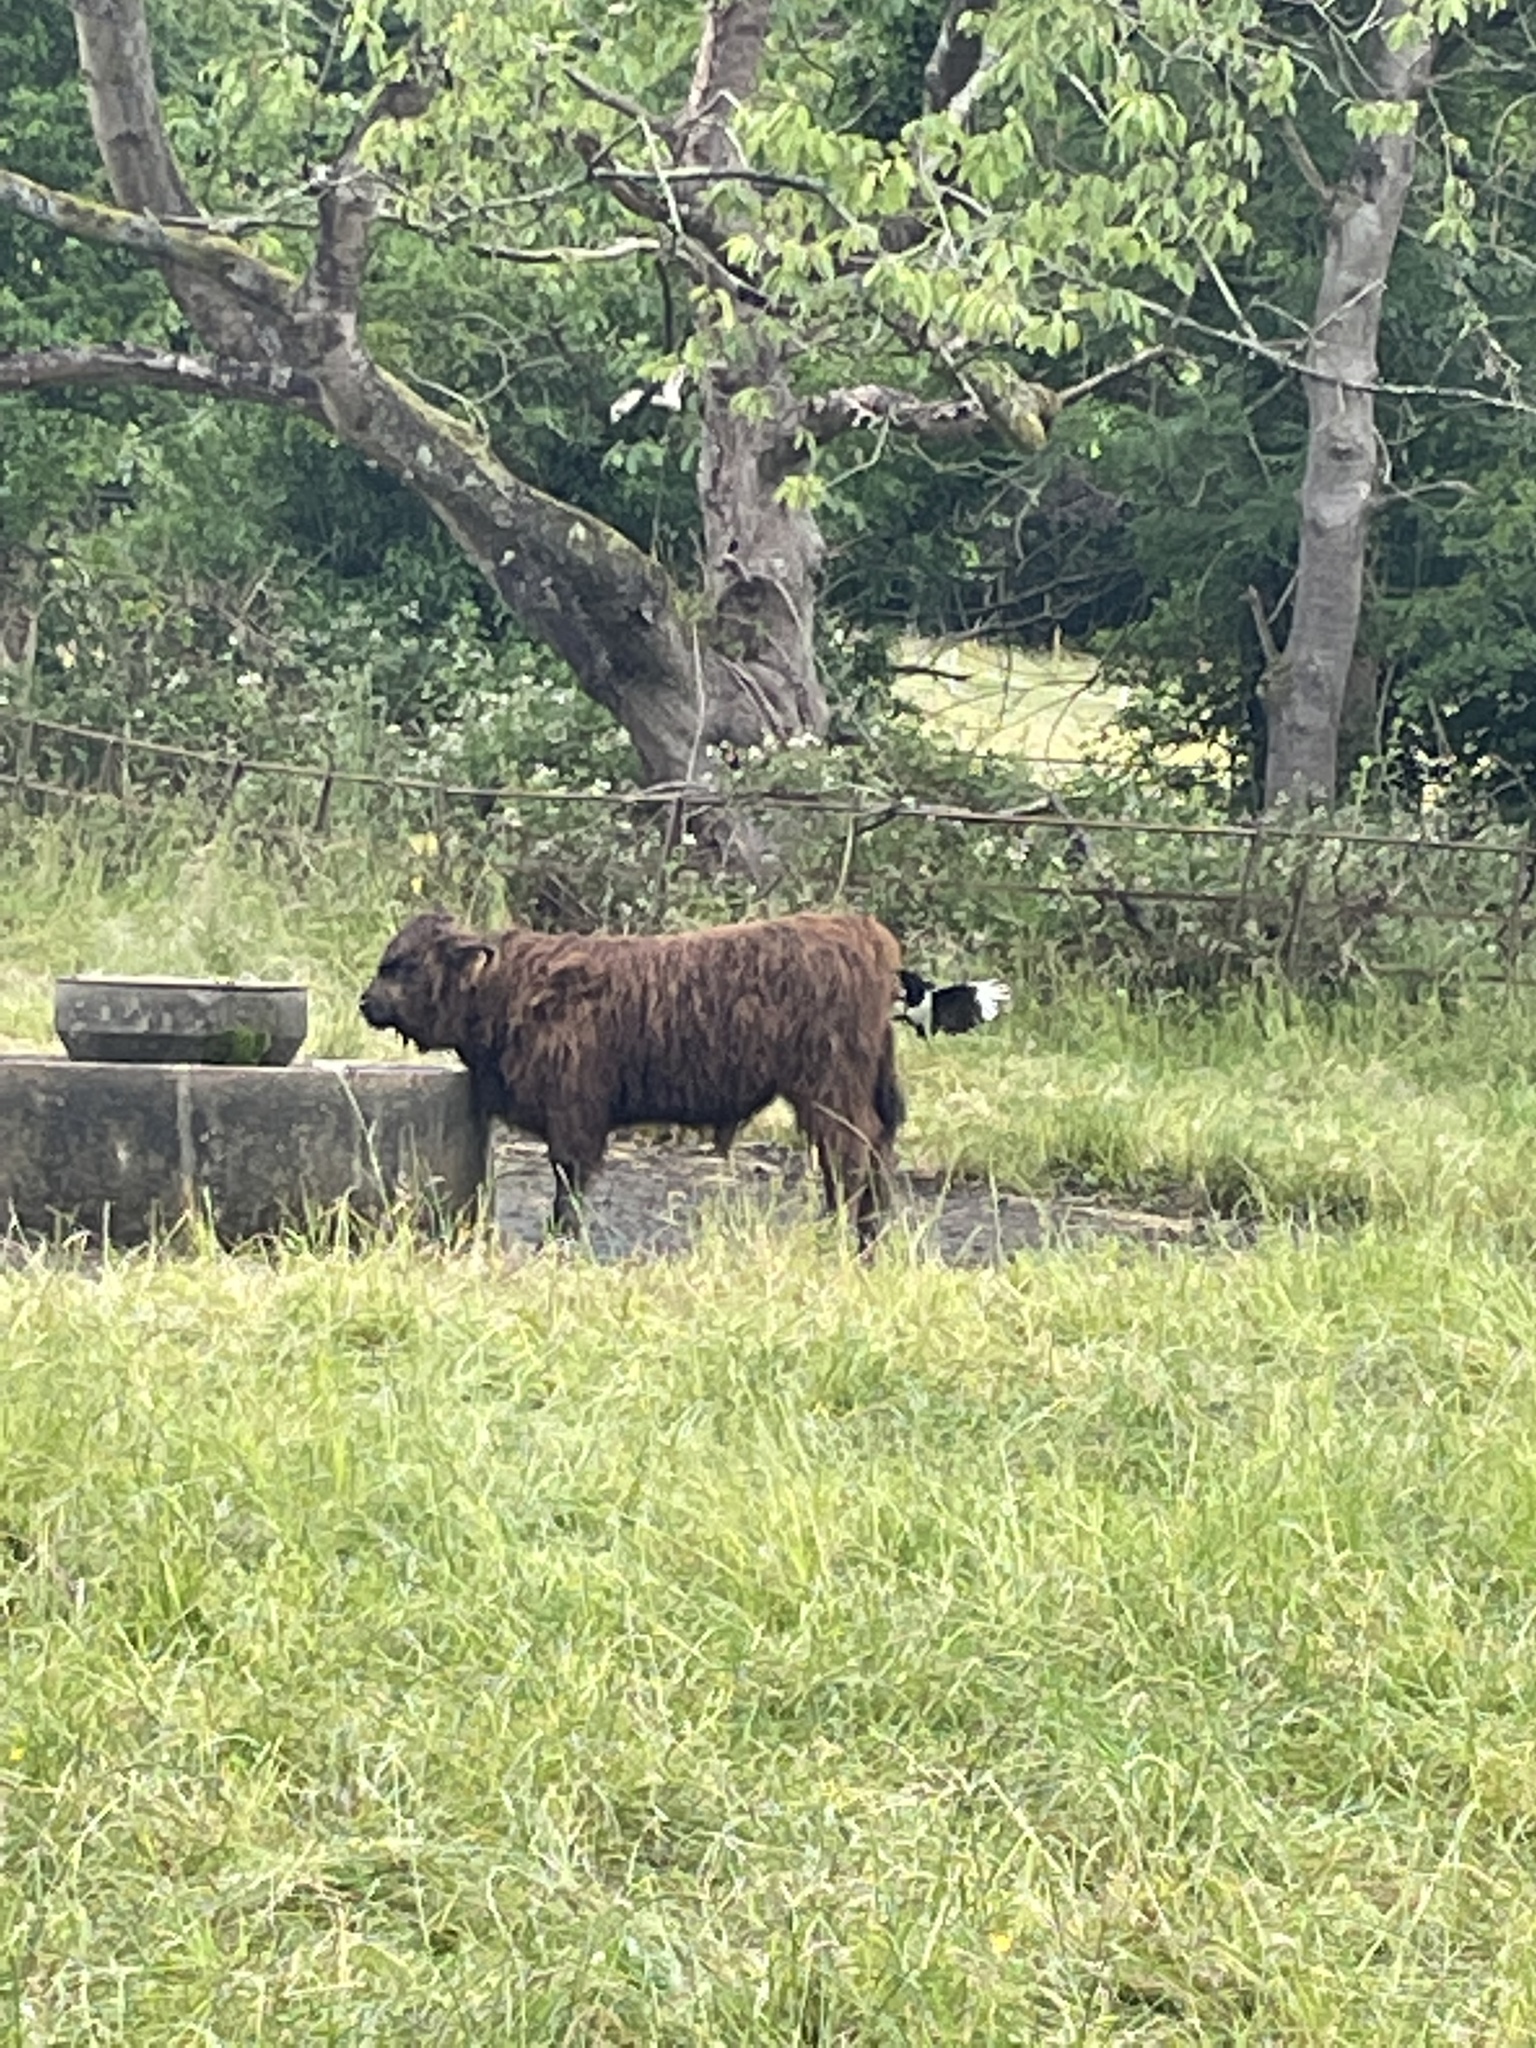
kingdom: Animalia
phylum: Chordata
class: Aves
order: Passeriformes
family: Corvidae
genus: Pica
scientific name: Pica pica
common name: Eurasian magpie
